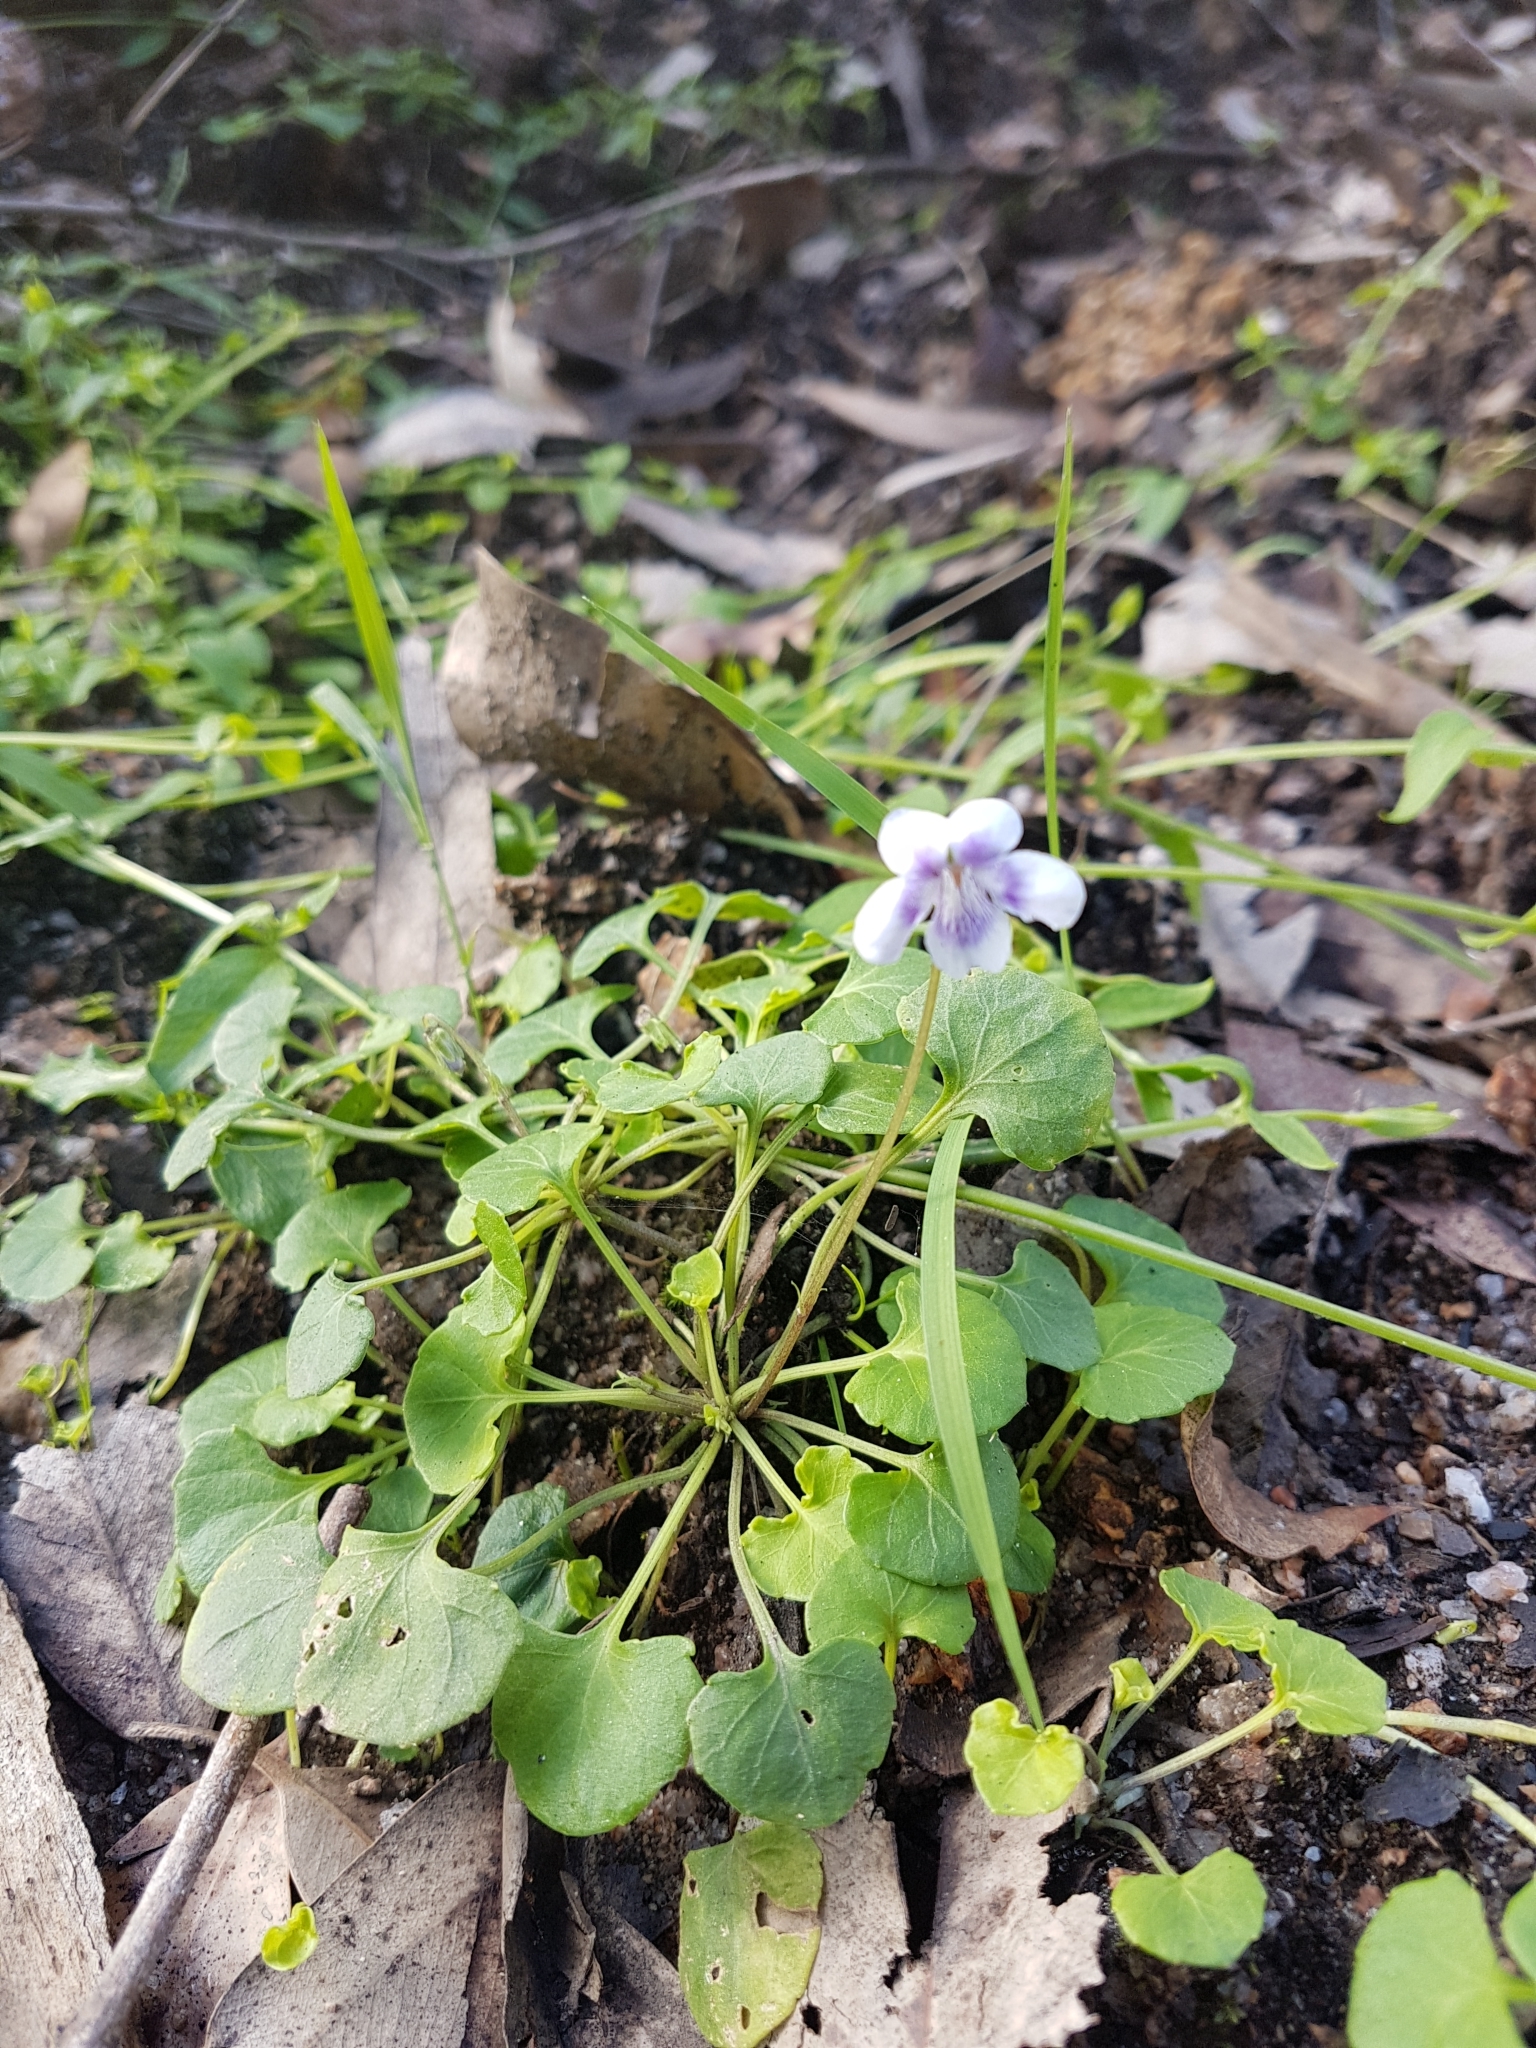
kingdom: Plantae
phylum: Tracheophyta
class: Magnoliopsida
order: Malpighiales
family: Violaceae
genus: Viola
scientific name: Viola hederacea
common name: Australian violet
